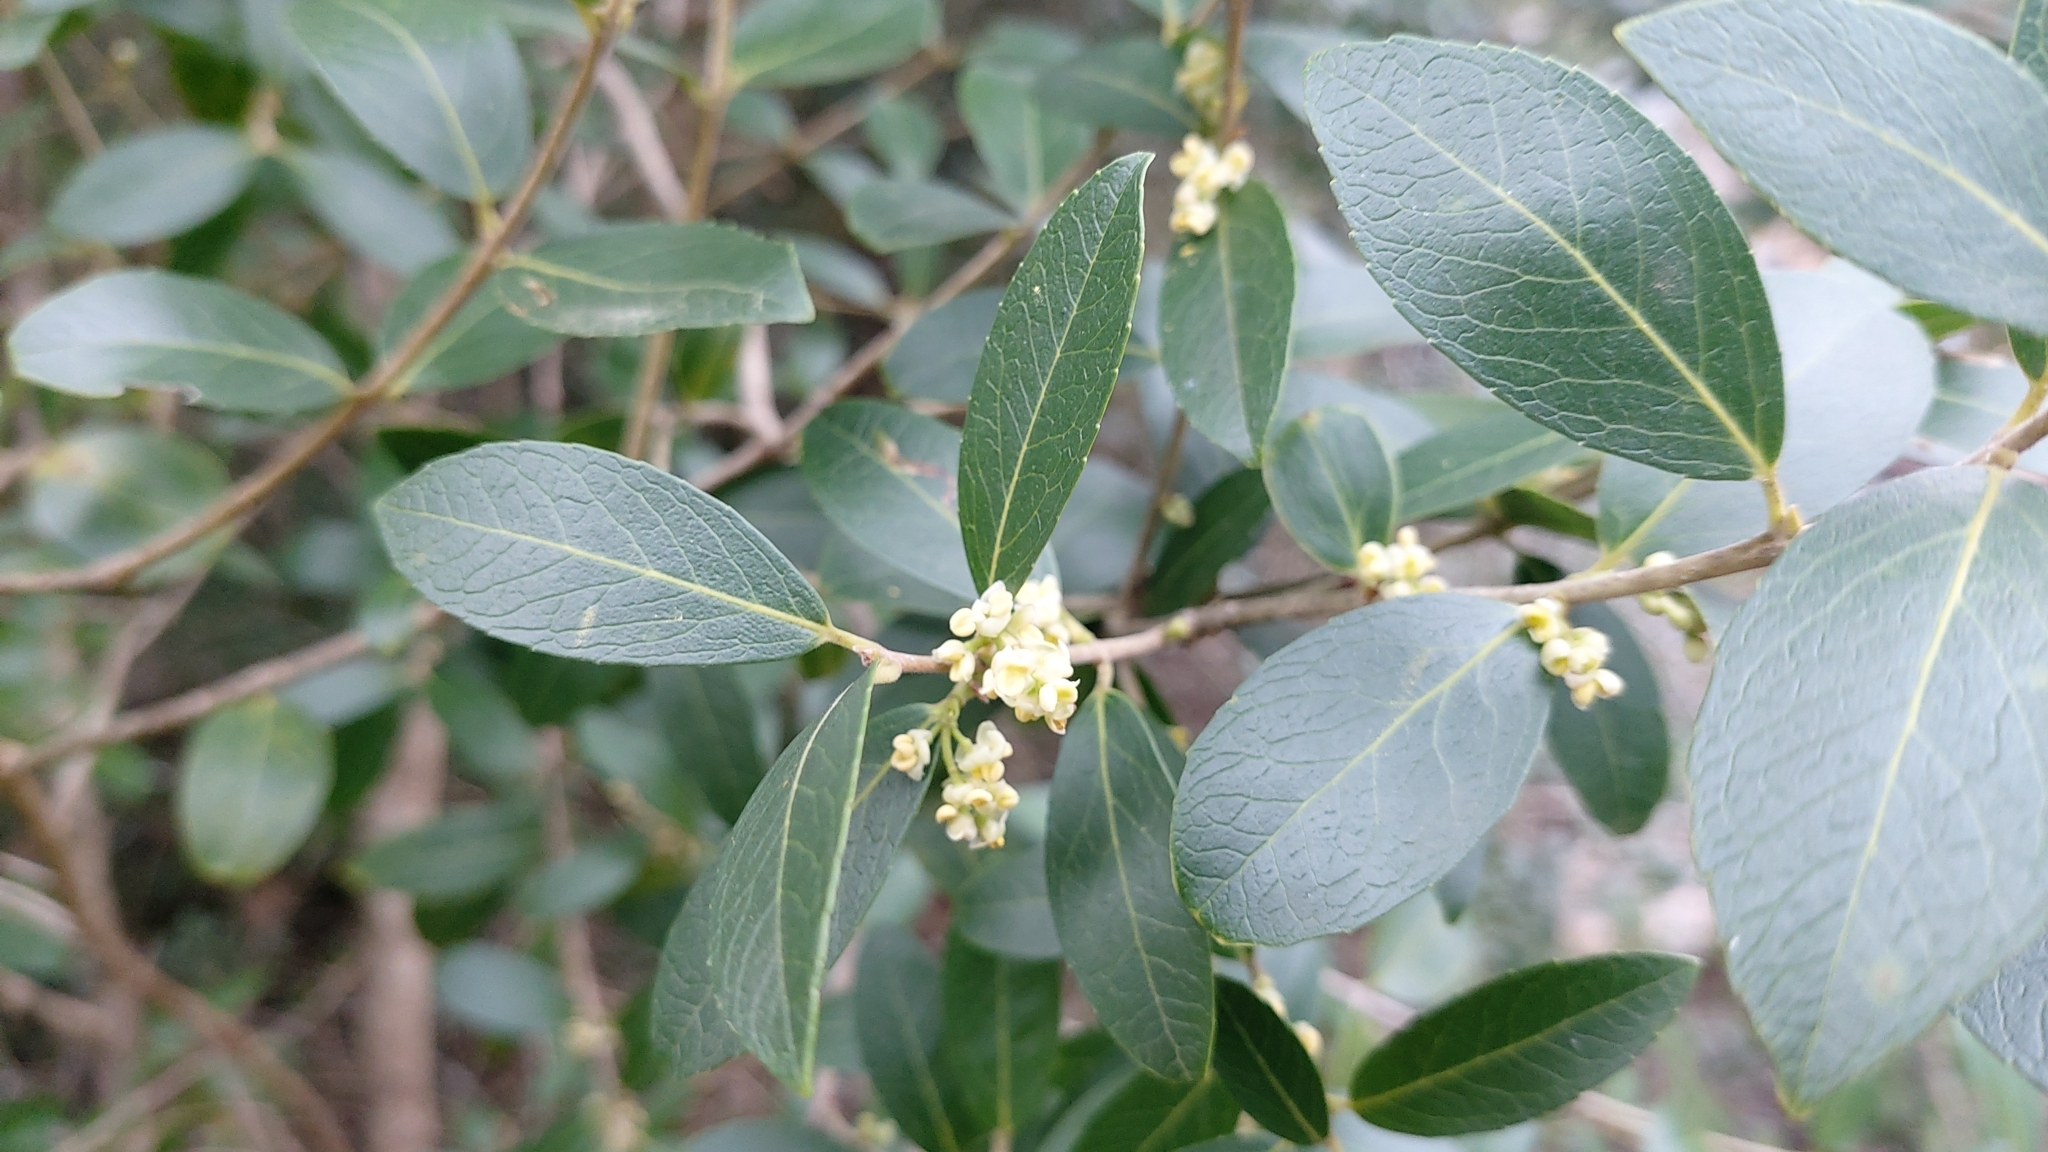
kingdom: Plantae
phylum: Tracheophyta
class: Magnoliopsida
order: Lamiales
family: Oleaceae
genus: Phillyrea
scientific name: Phillyrea latifolia
